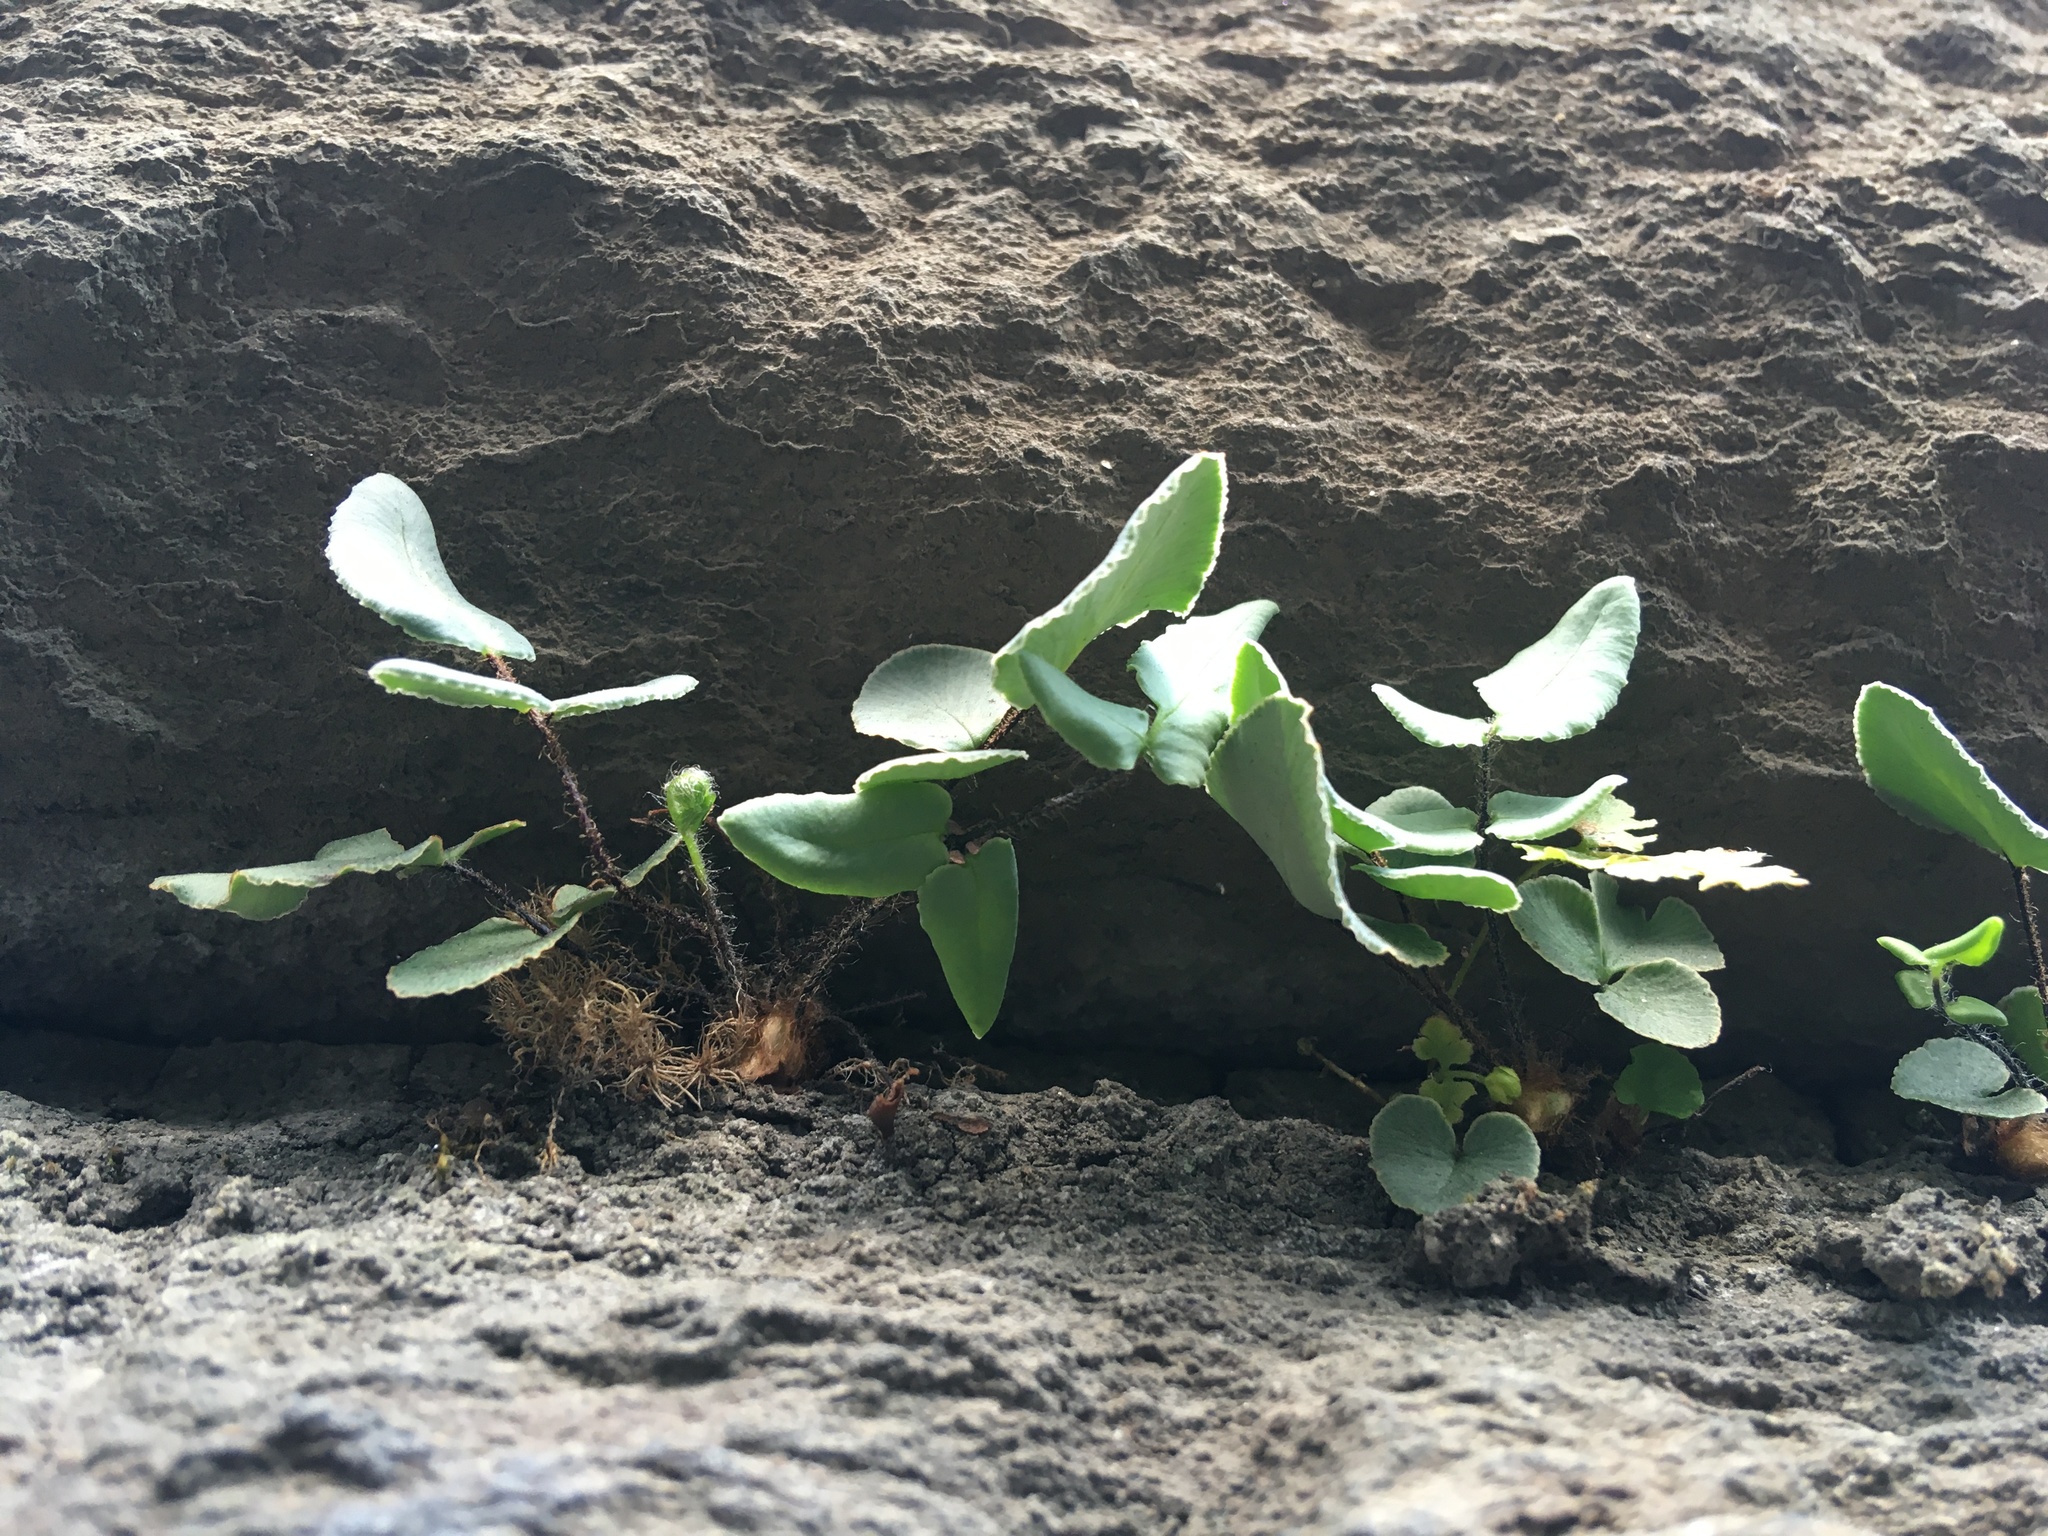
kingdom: Plantae
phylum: Tracheophyta
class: Polypodiopsida
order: Polypodiales
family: Pteridaceae
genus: Pellaea
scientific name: Pellaea atropurpurea
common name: Hairy cliffbrake
